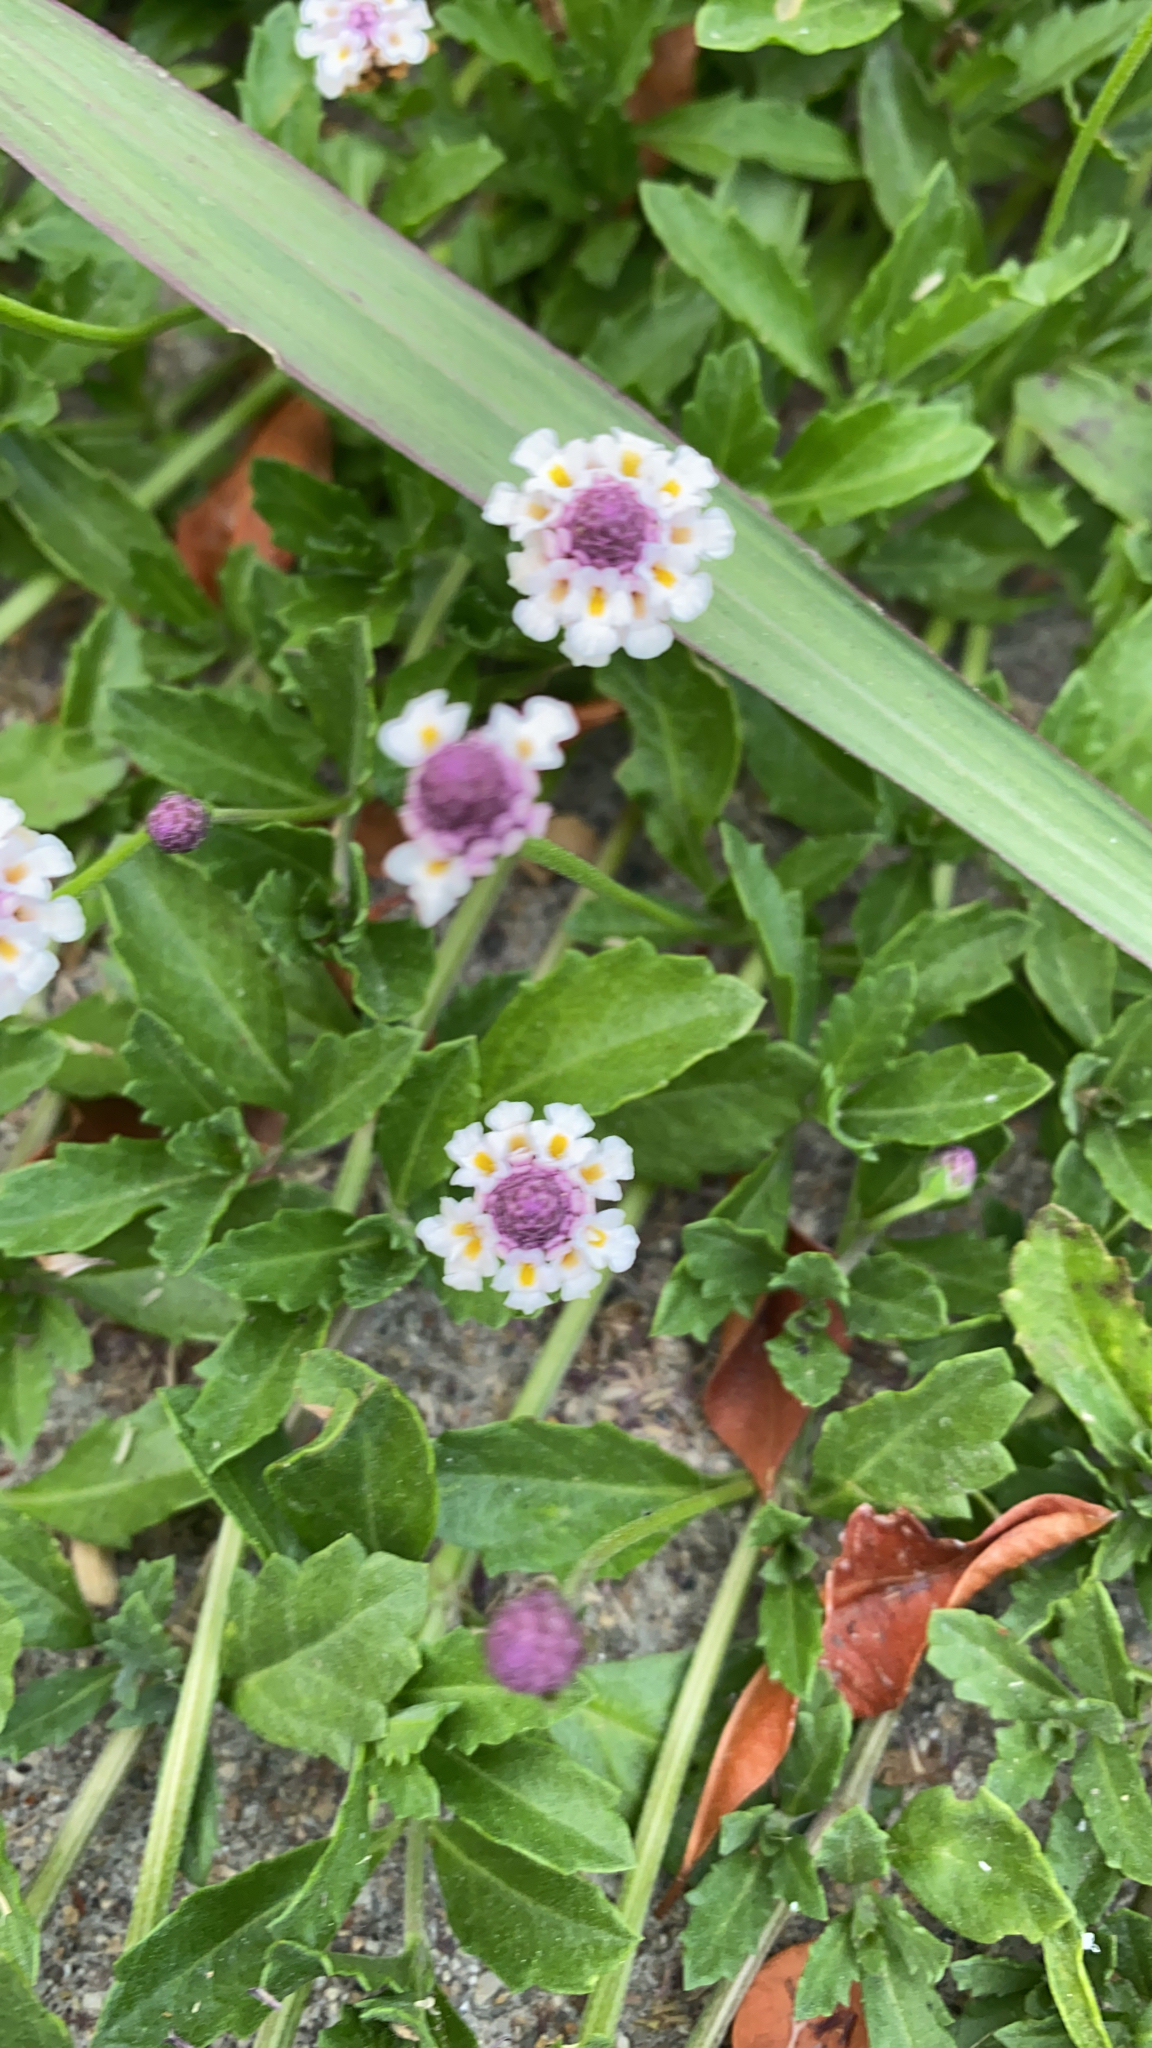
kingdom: Plantae
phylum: Tracheophyta
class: Magnoliopsida
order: Lamiales
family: Verbenaceae
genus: Phyla
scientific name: Phyla nodiflora
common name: Frogfruit
